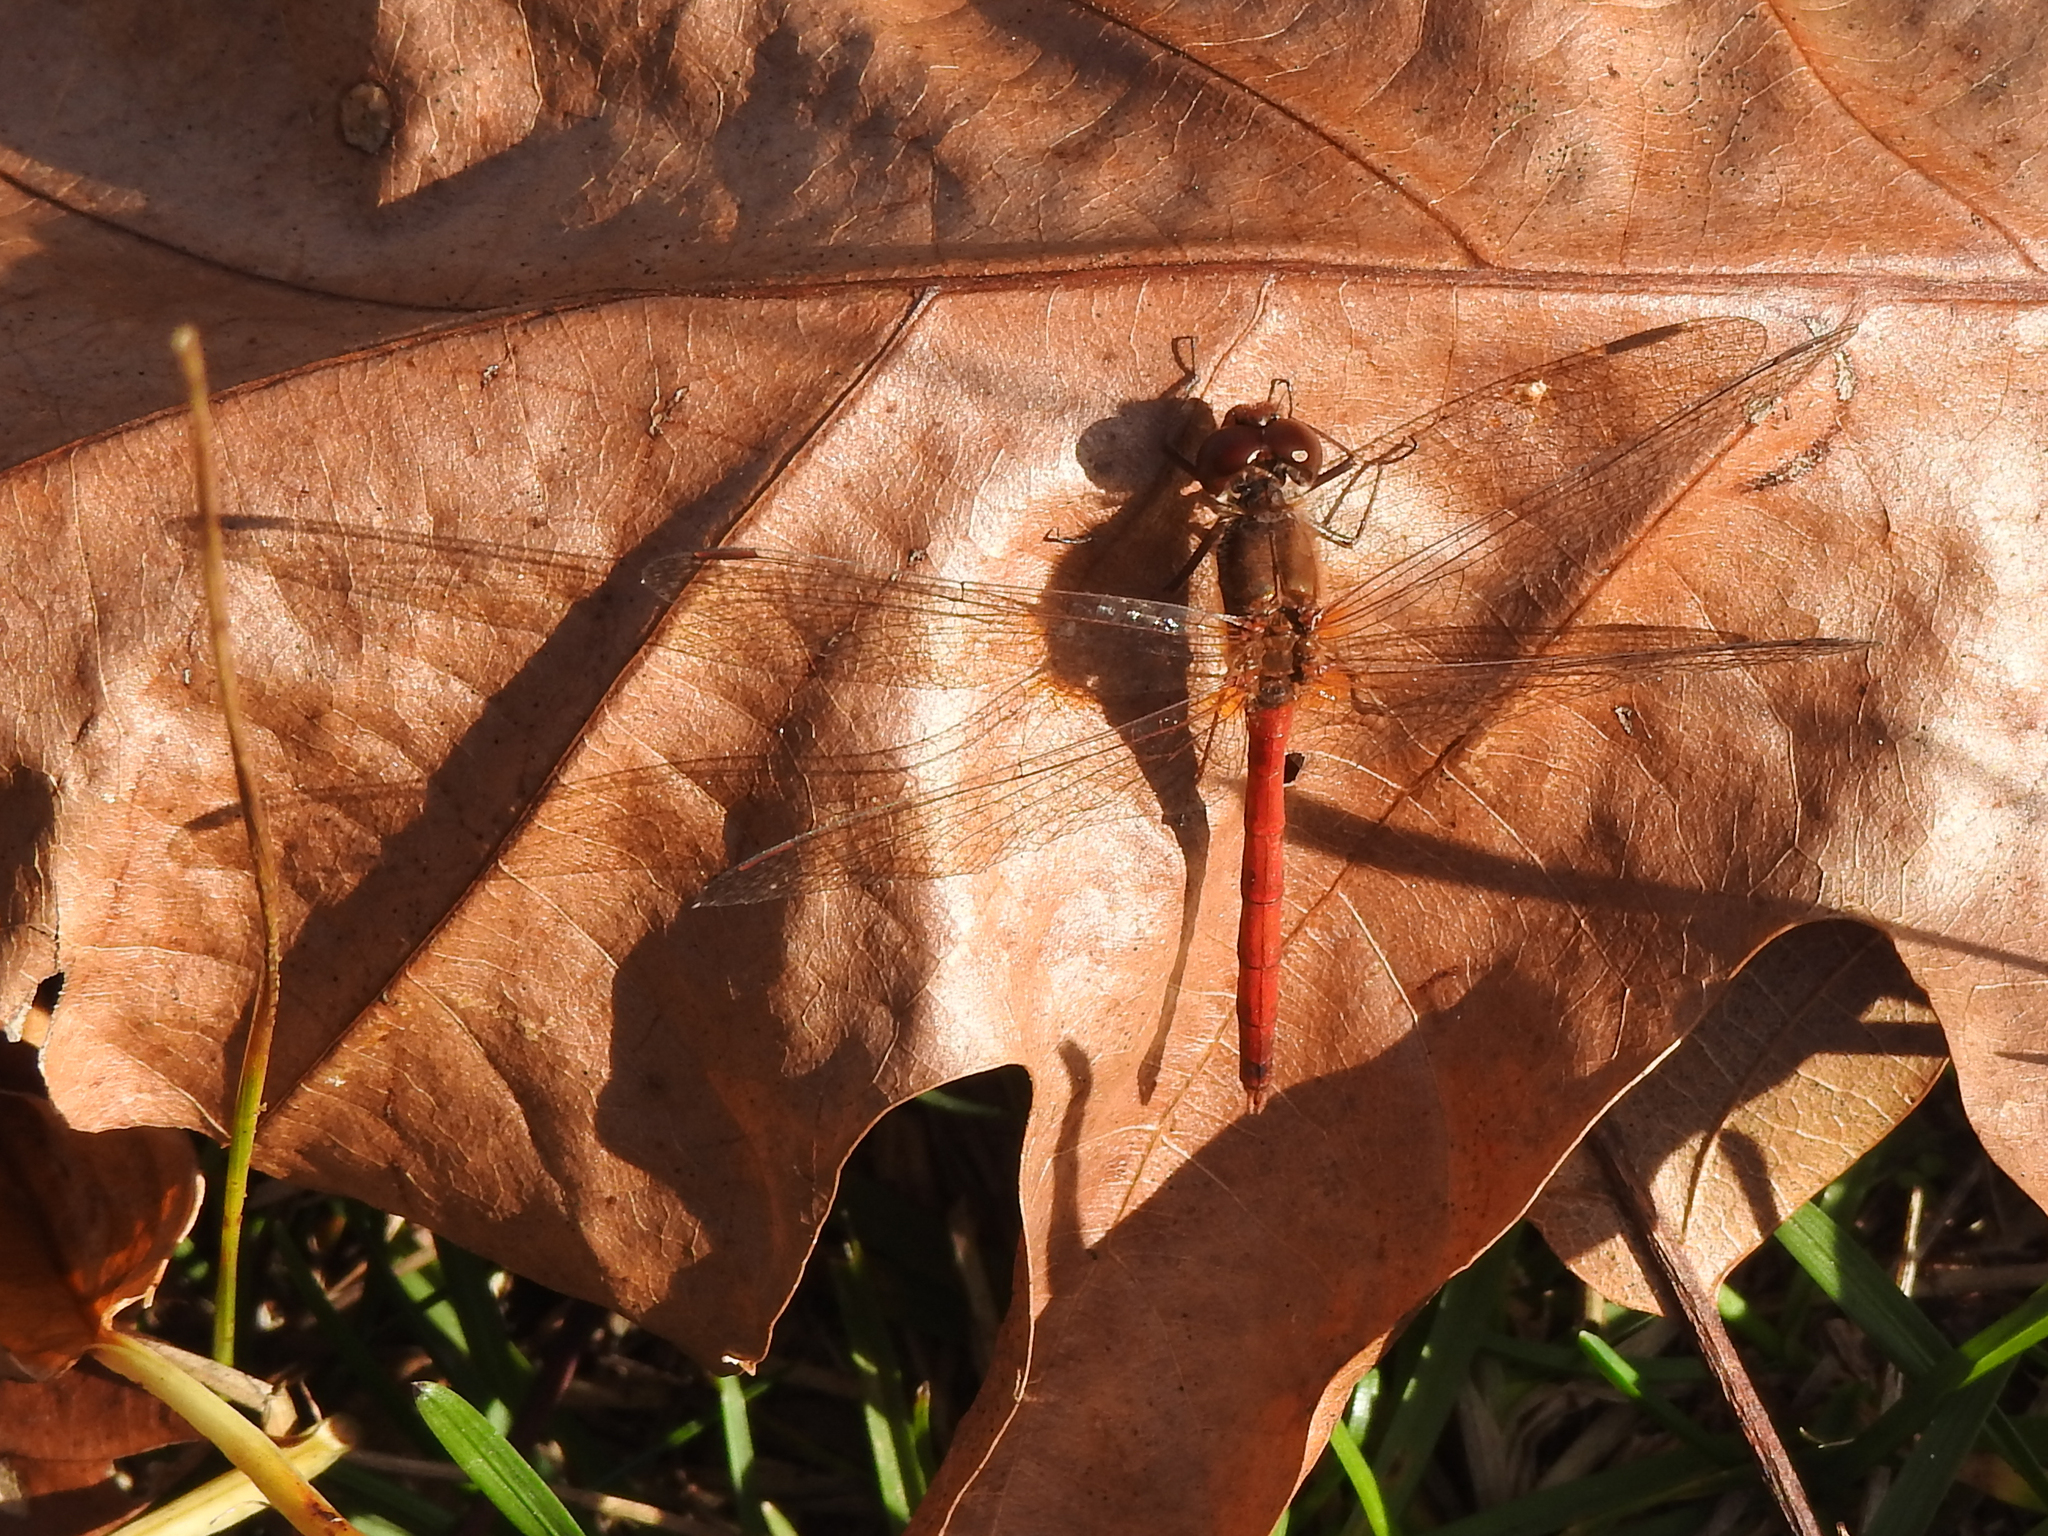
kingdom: Animalia
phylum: Arthropoda
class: Insecta
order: Odonata
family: Libellulidae
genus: Sympetrum
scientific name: Sympetrum vicinum
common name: Autumn meadowhawk
